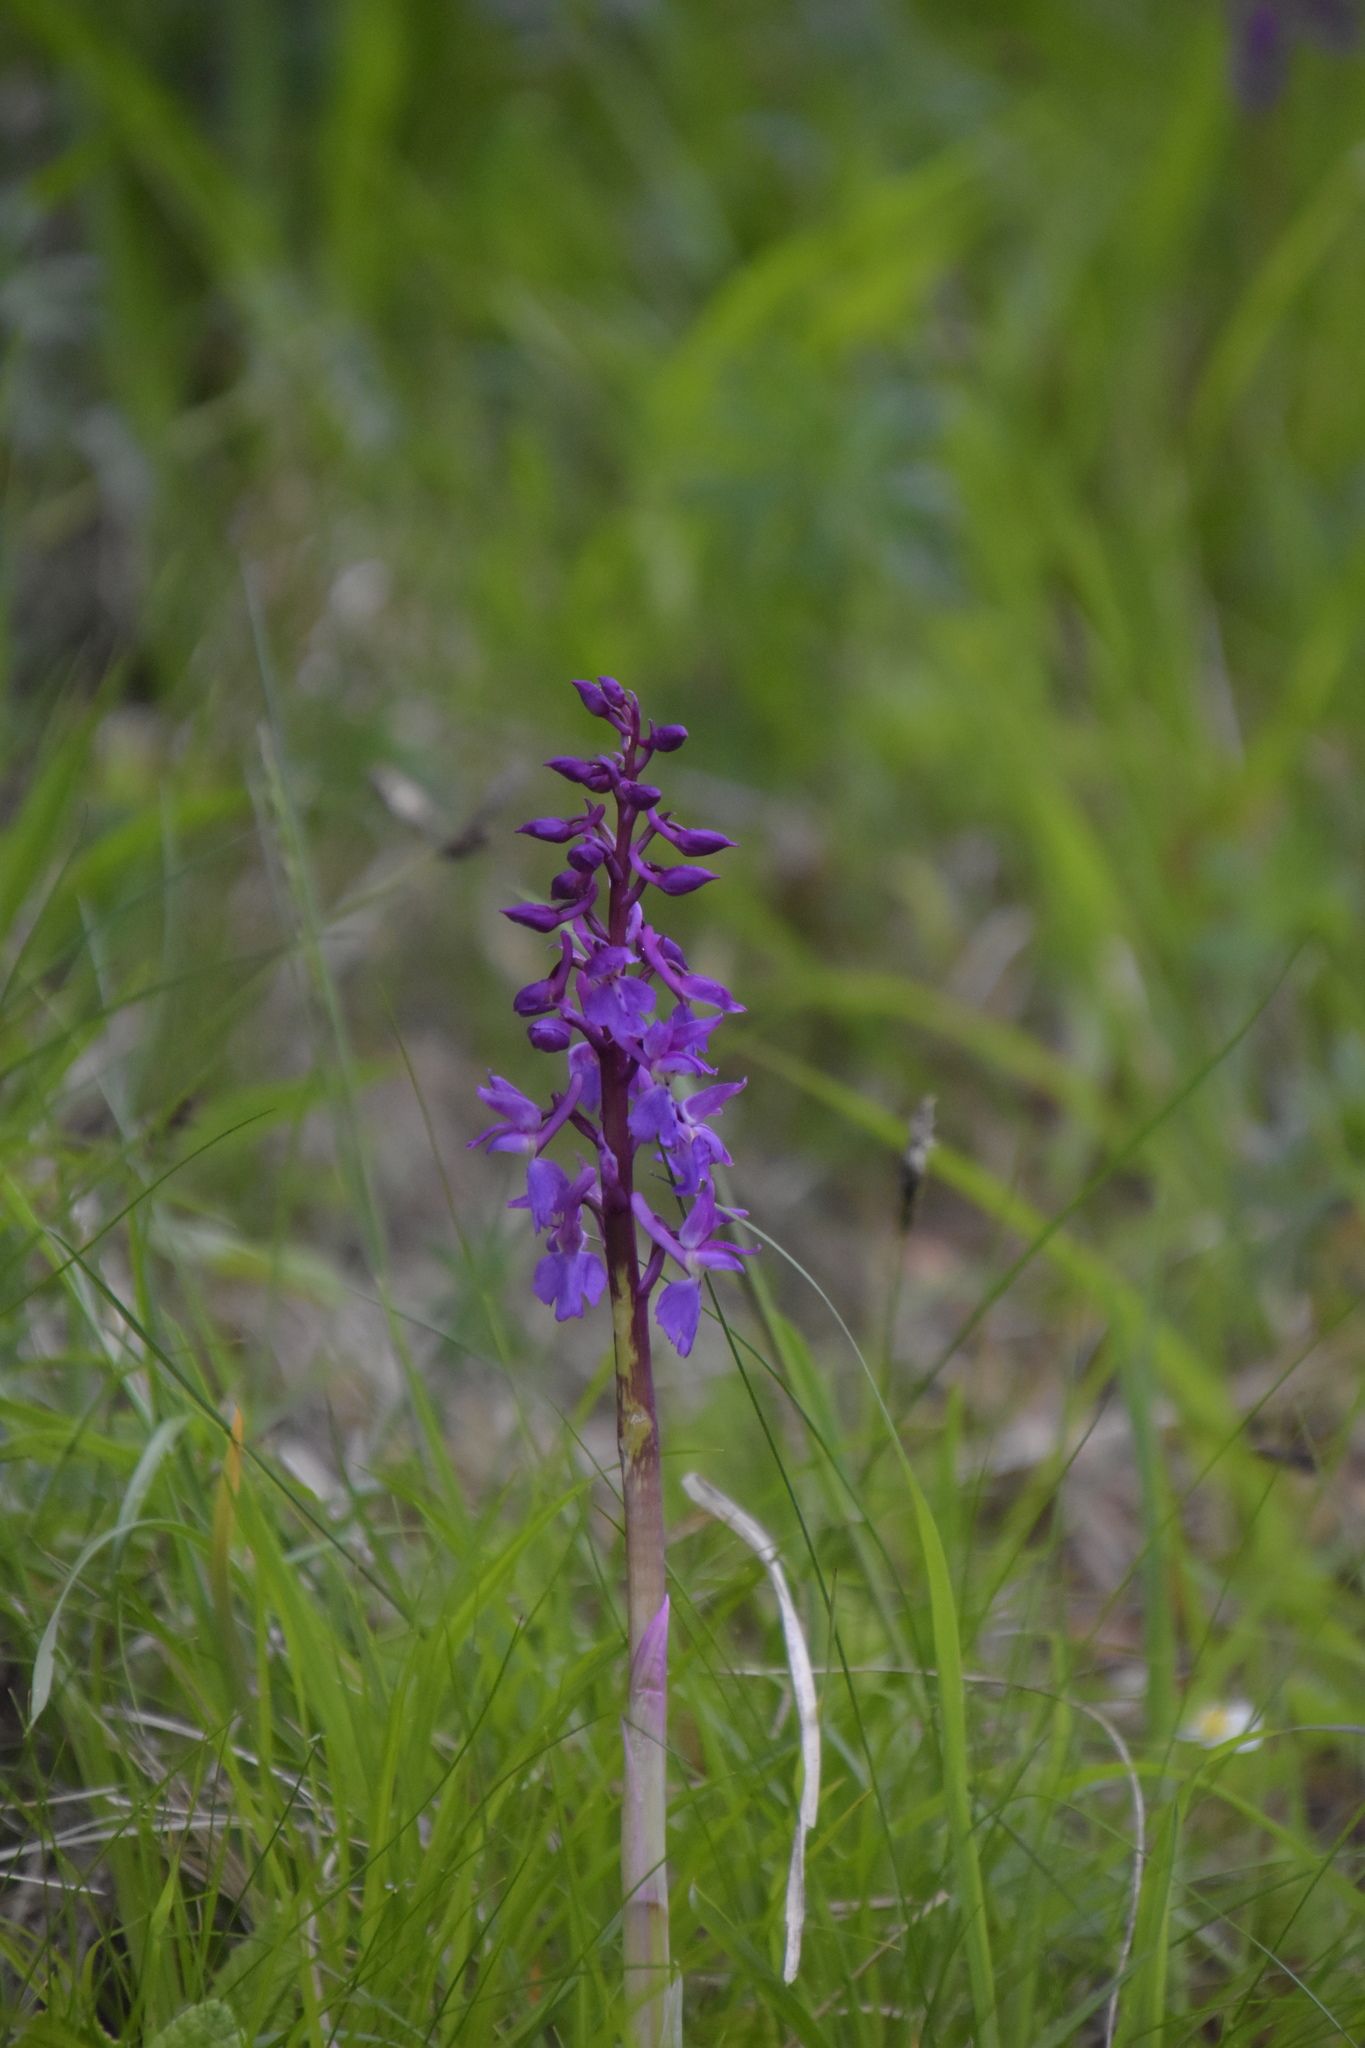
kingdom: Plantae
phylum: Tracheophyta
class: Liliopsida
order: Asparagales
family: Orchidaceae
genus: Orchis
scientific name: Orchis mascula
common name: Early-purple orchid
